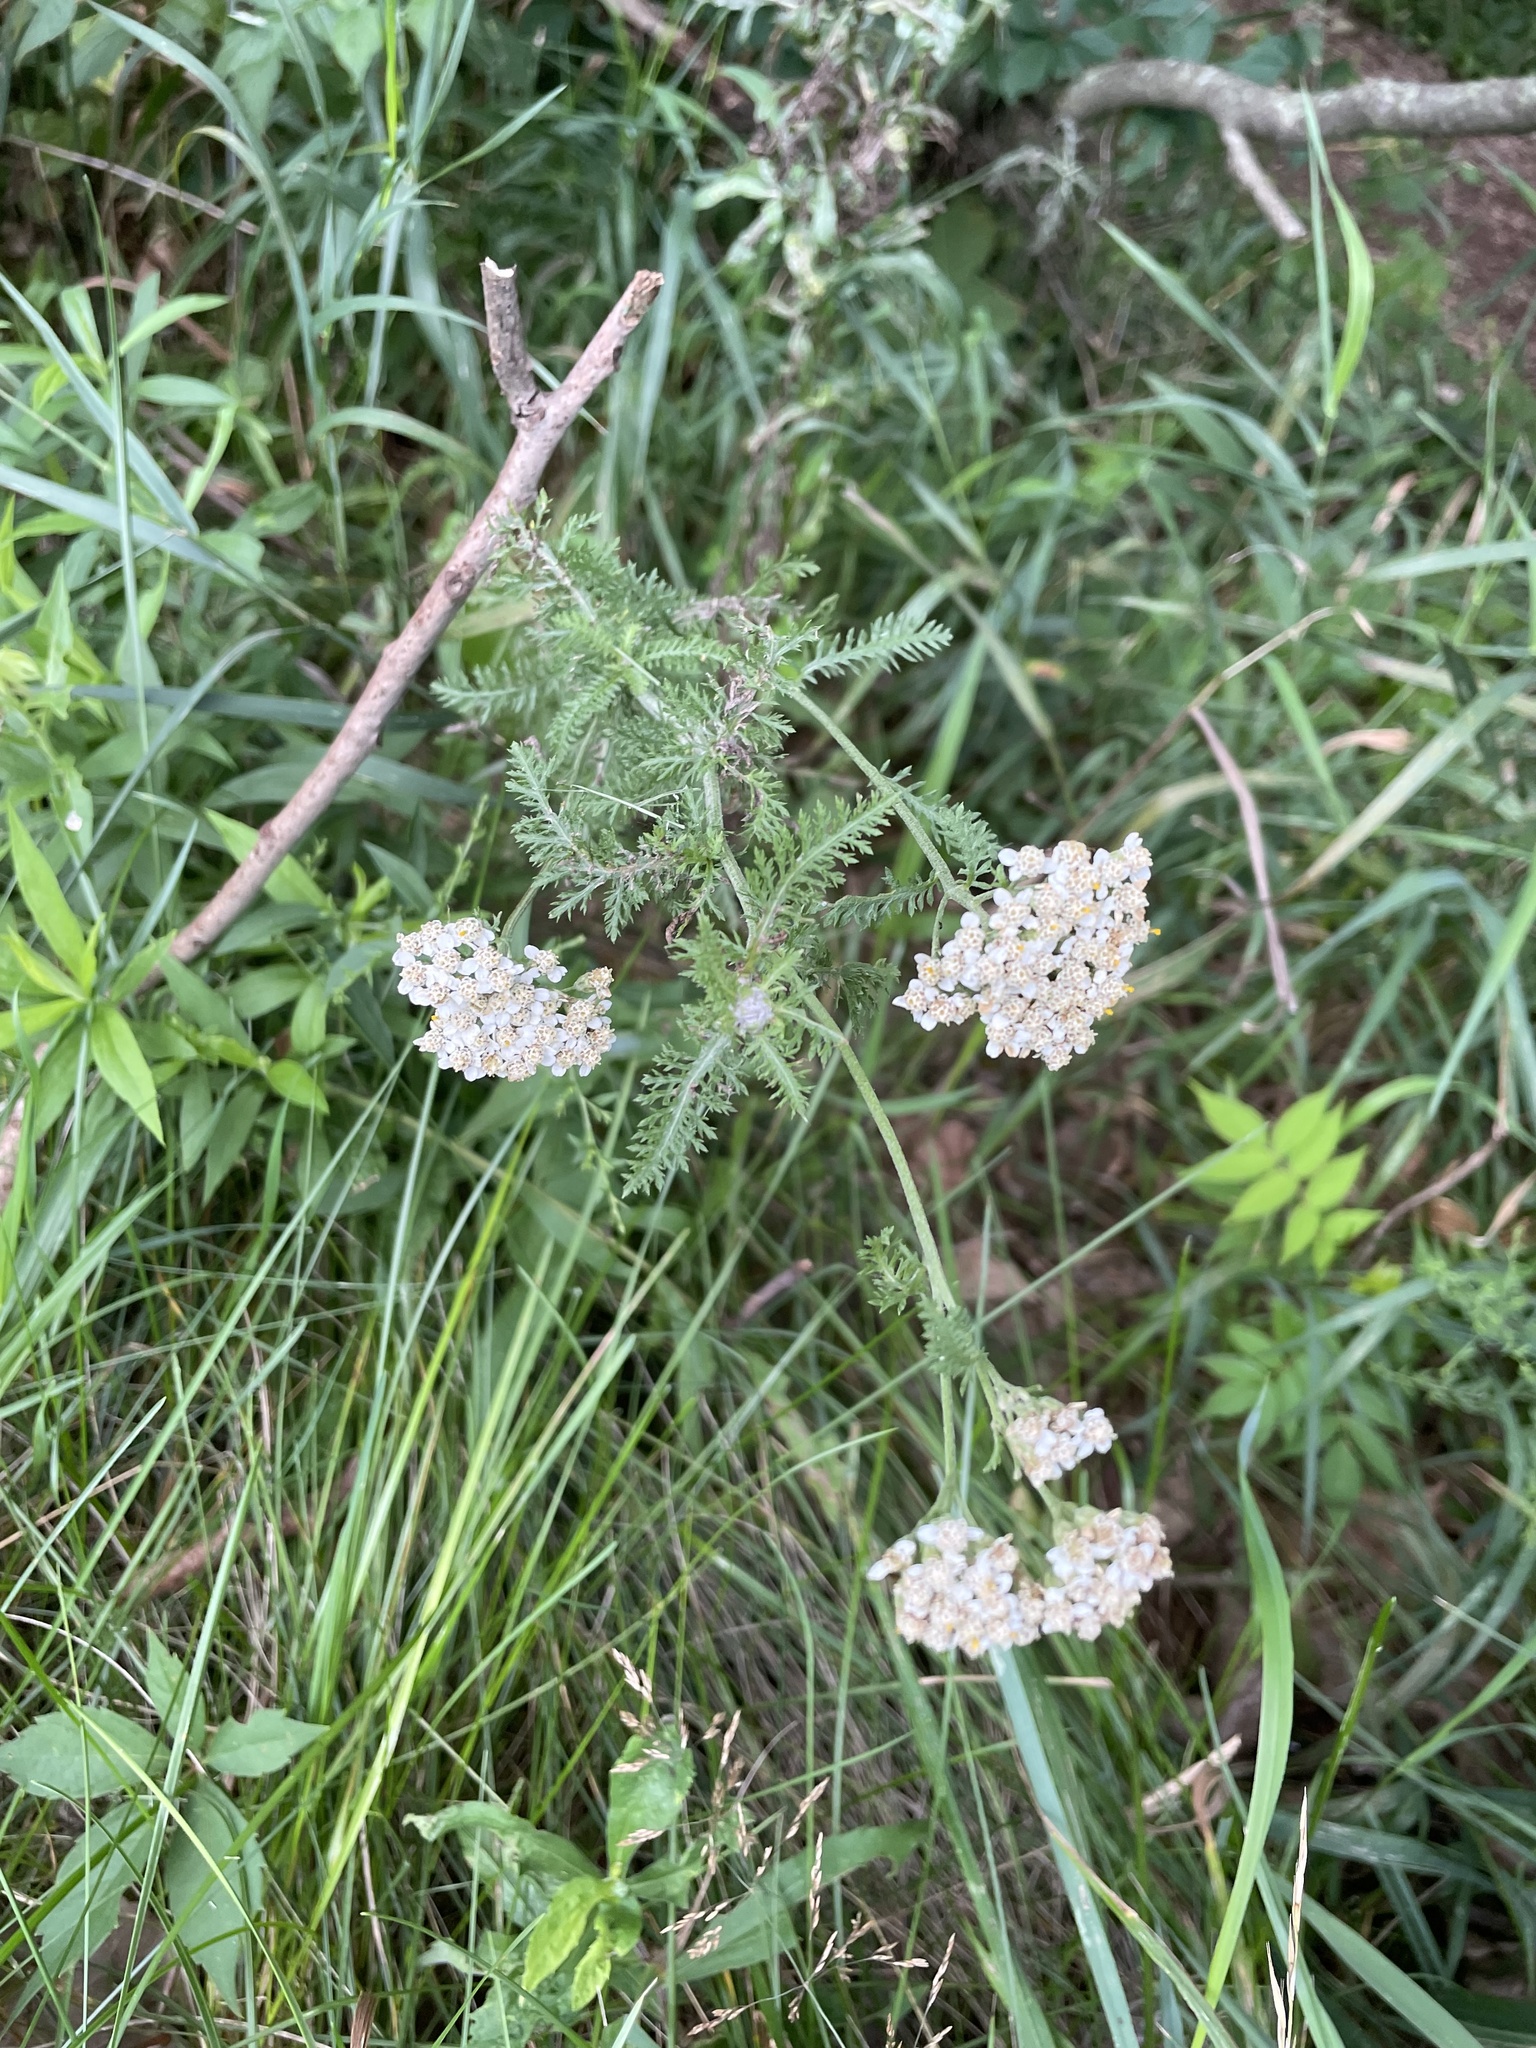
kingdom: Plantae
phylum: Tracheophyta
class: Magnoliopsida
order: Asterales
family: Asteraceae
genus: Achillea
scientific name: Achillea millefolium
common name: Yarrow
